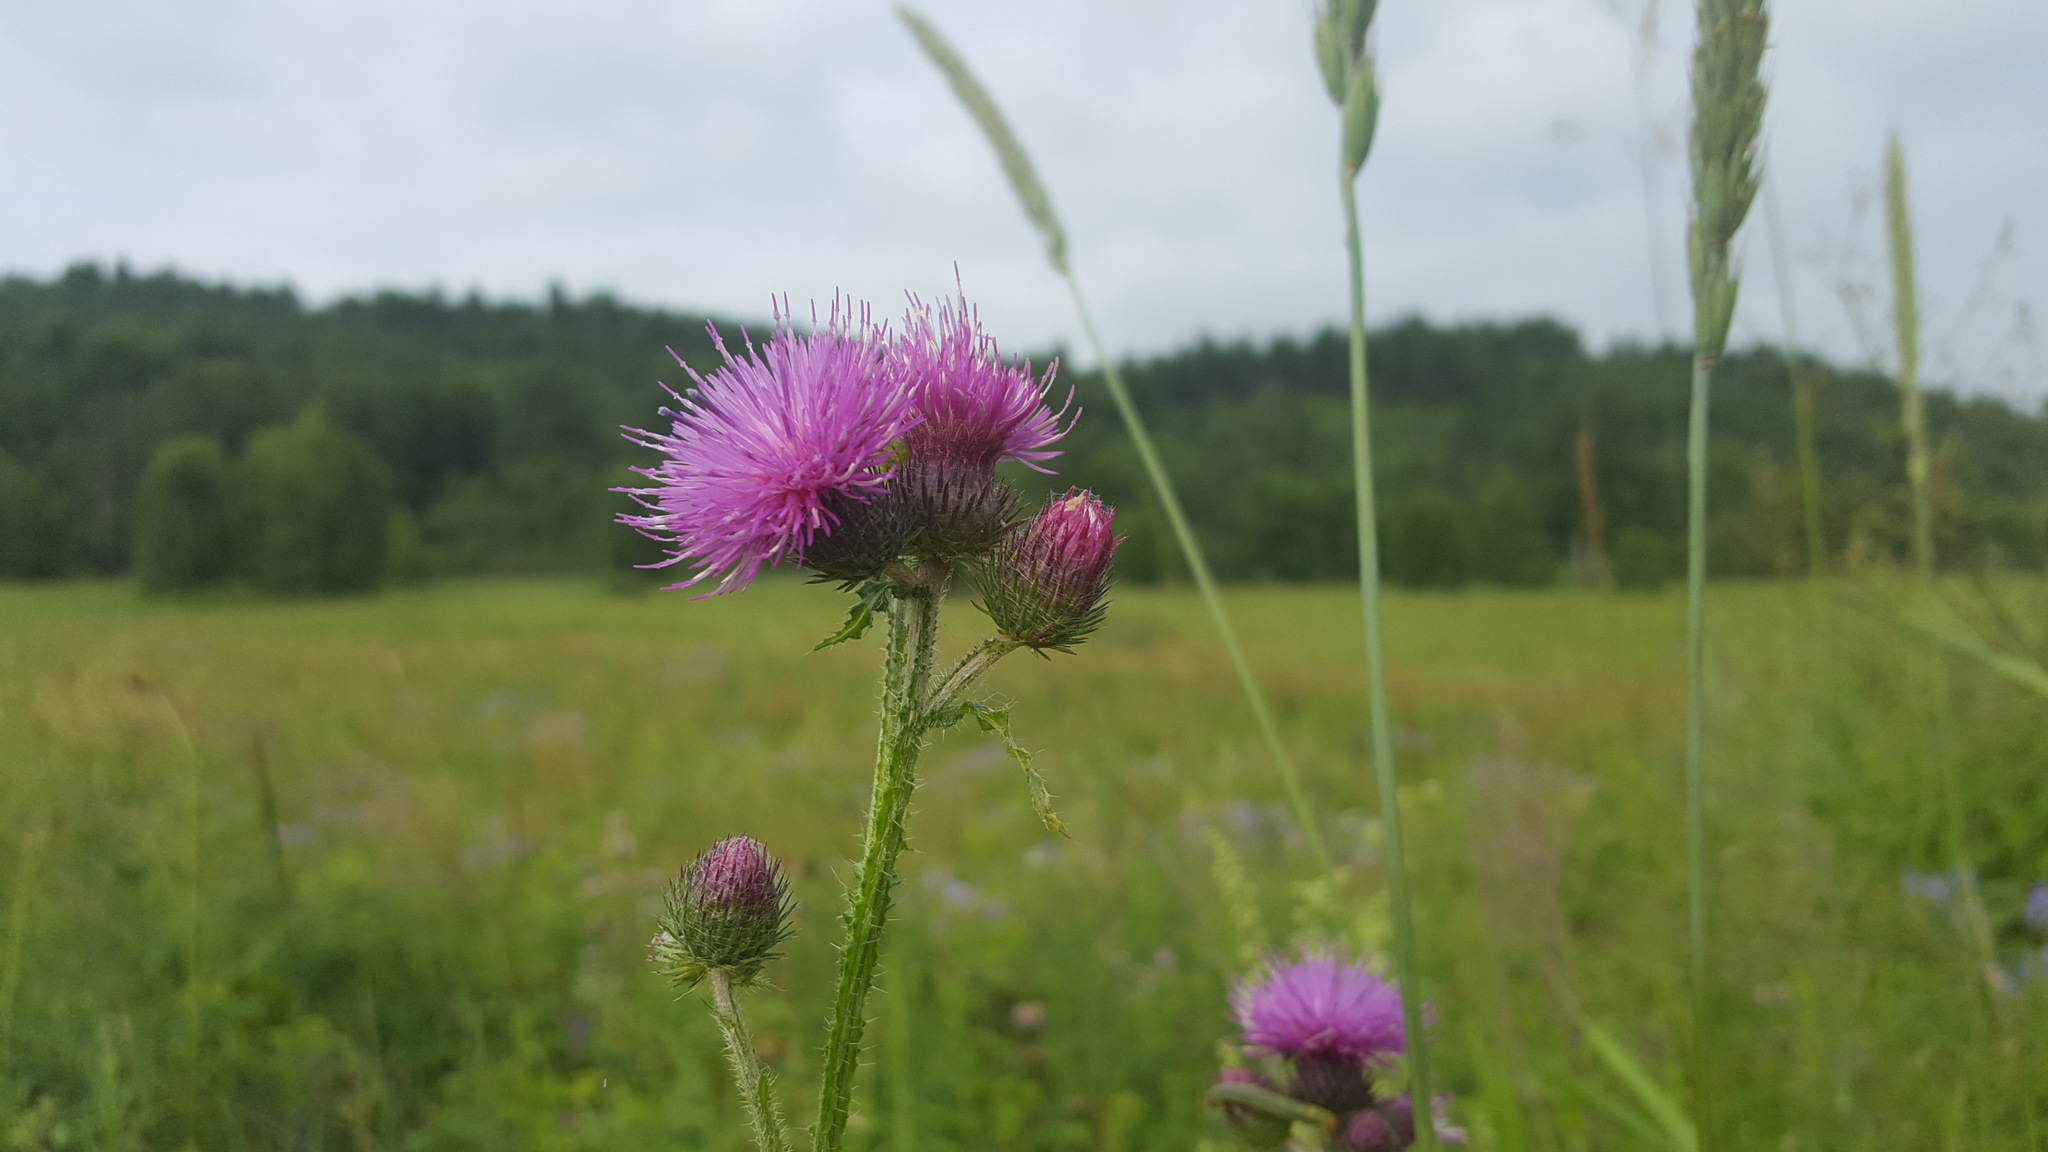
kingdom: Plantae
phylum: Tracheophyta
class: Magnoliopsida
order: Asterales
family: Asteraceae
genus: Carduus
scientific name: Carduus crispus
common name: Welted thistle
